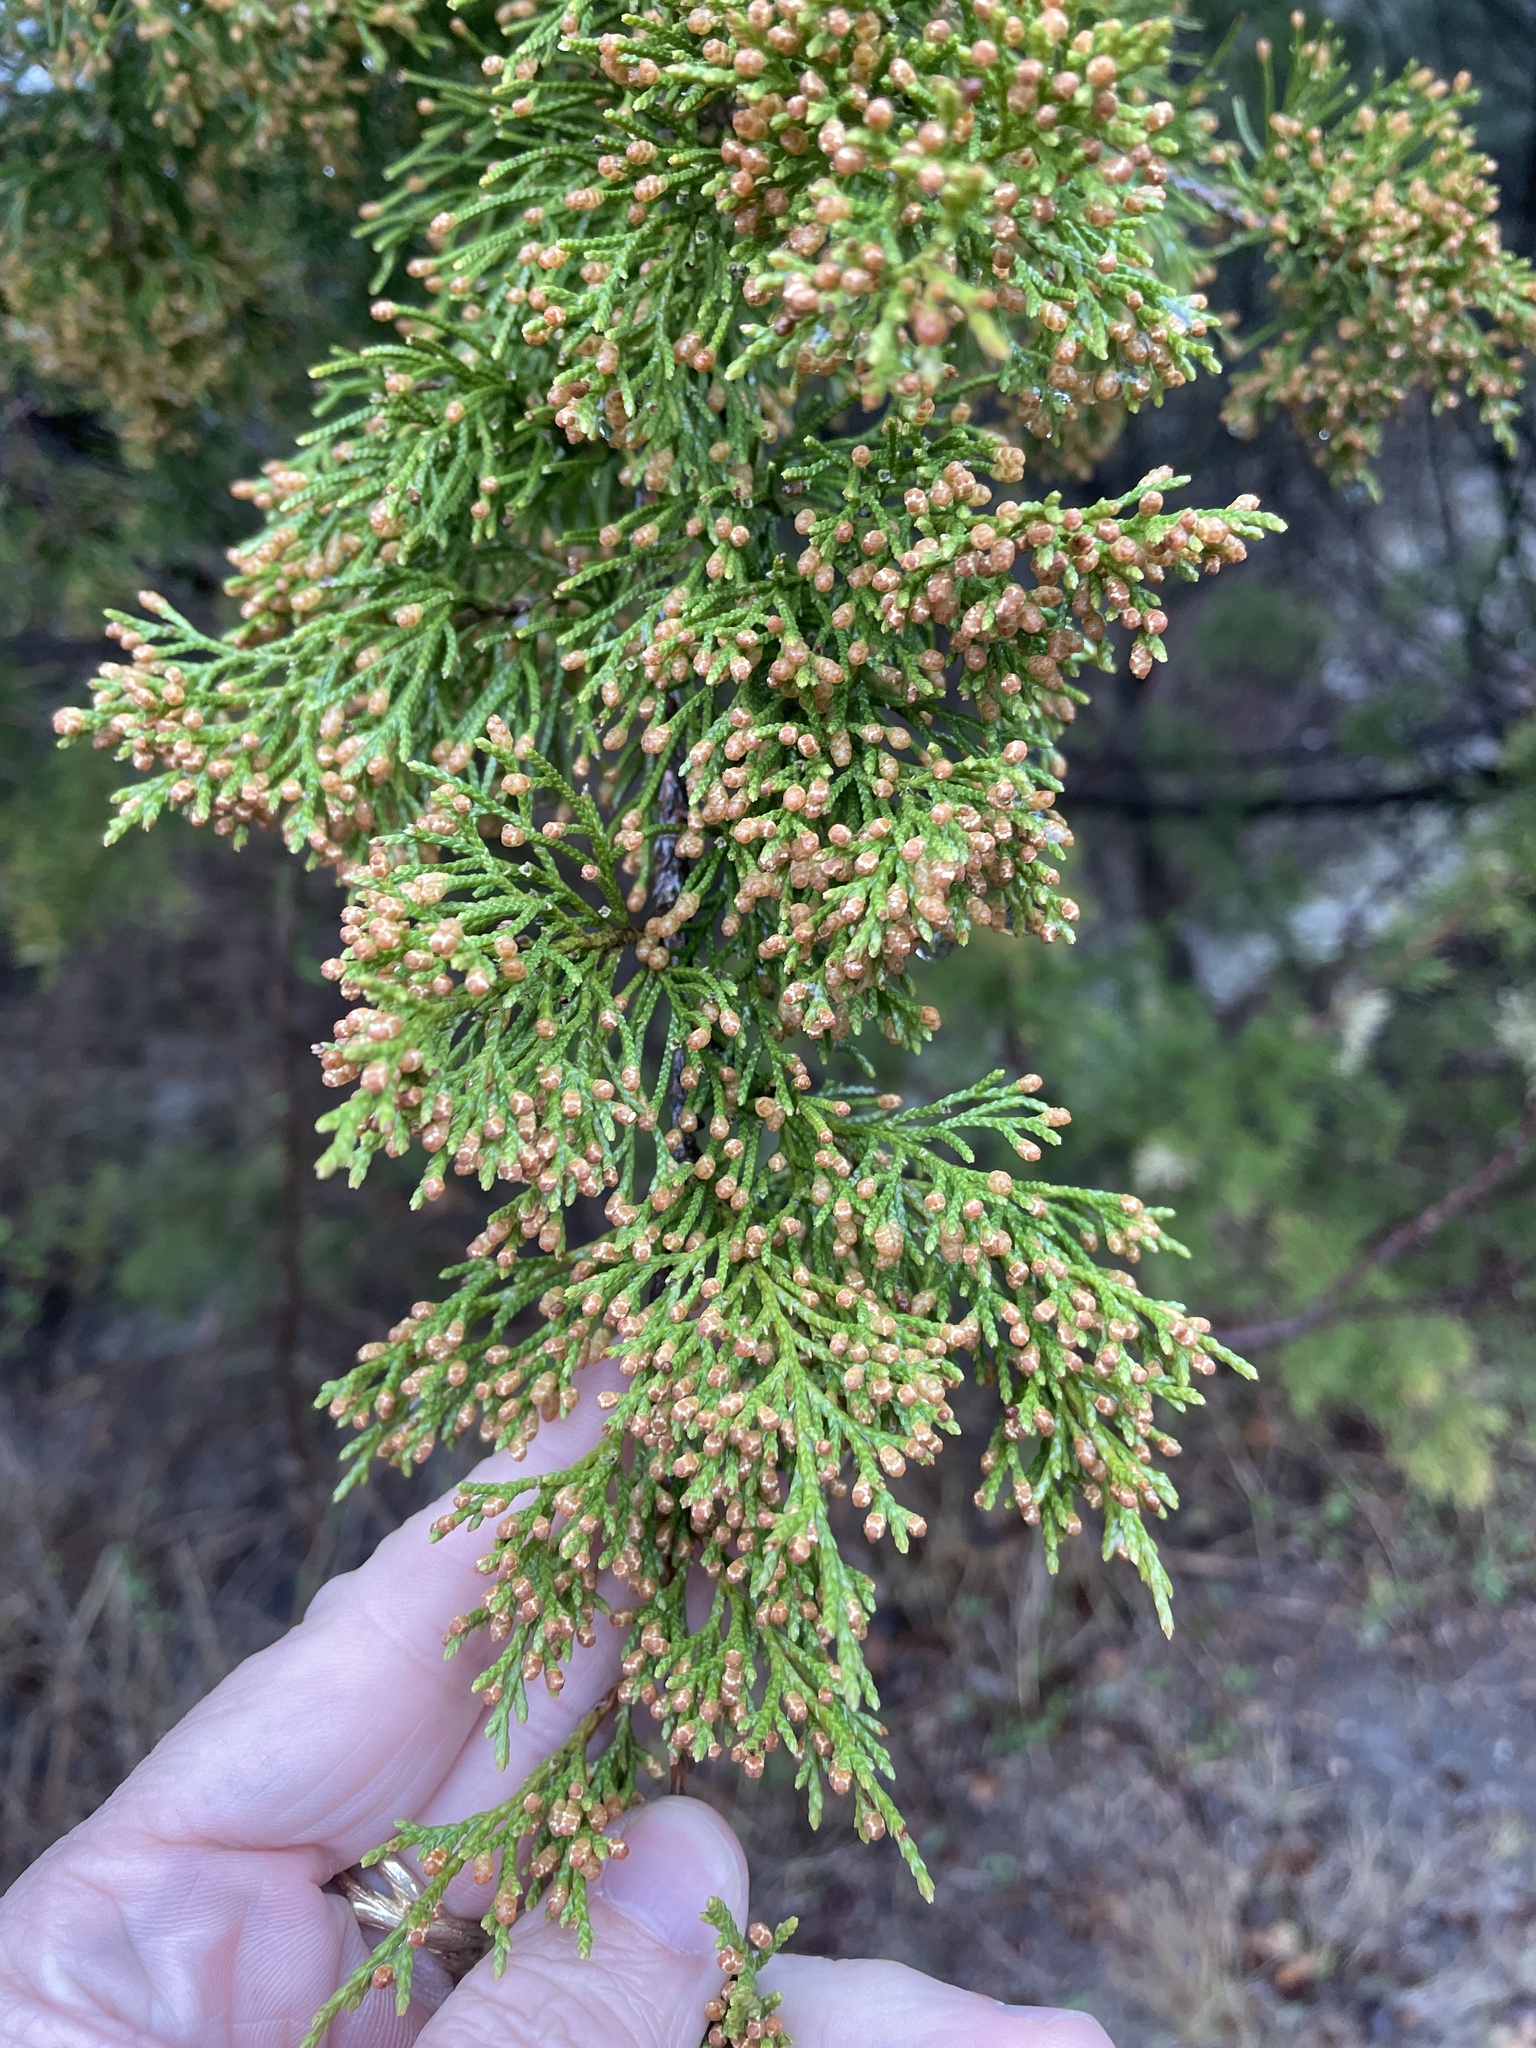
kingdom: Plantae
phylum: Tracheophyta
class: Pinopsida
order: Pinales
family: Cupressaceae
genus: Juniperus
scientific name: Juniperus virginiana
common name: Red juniper
